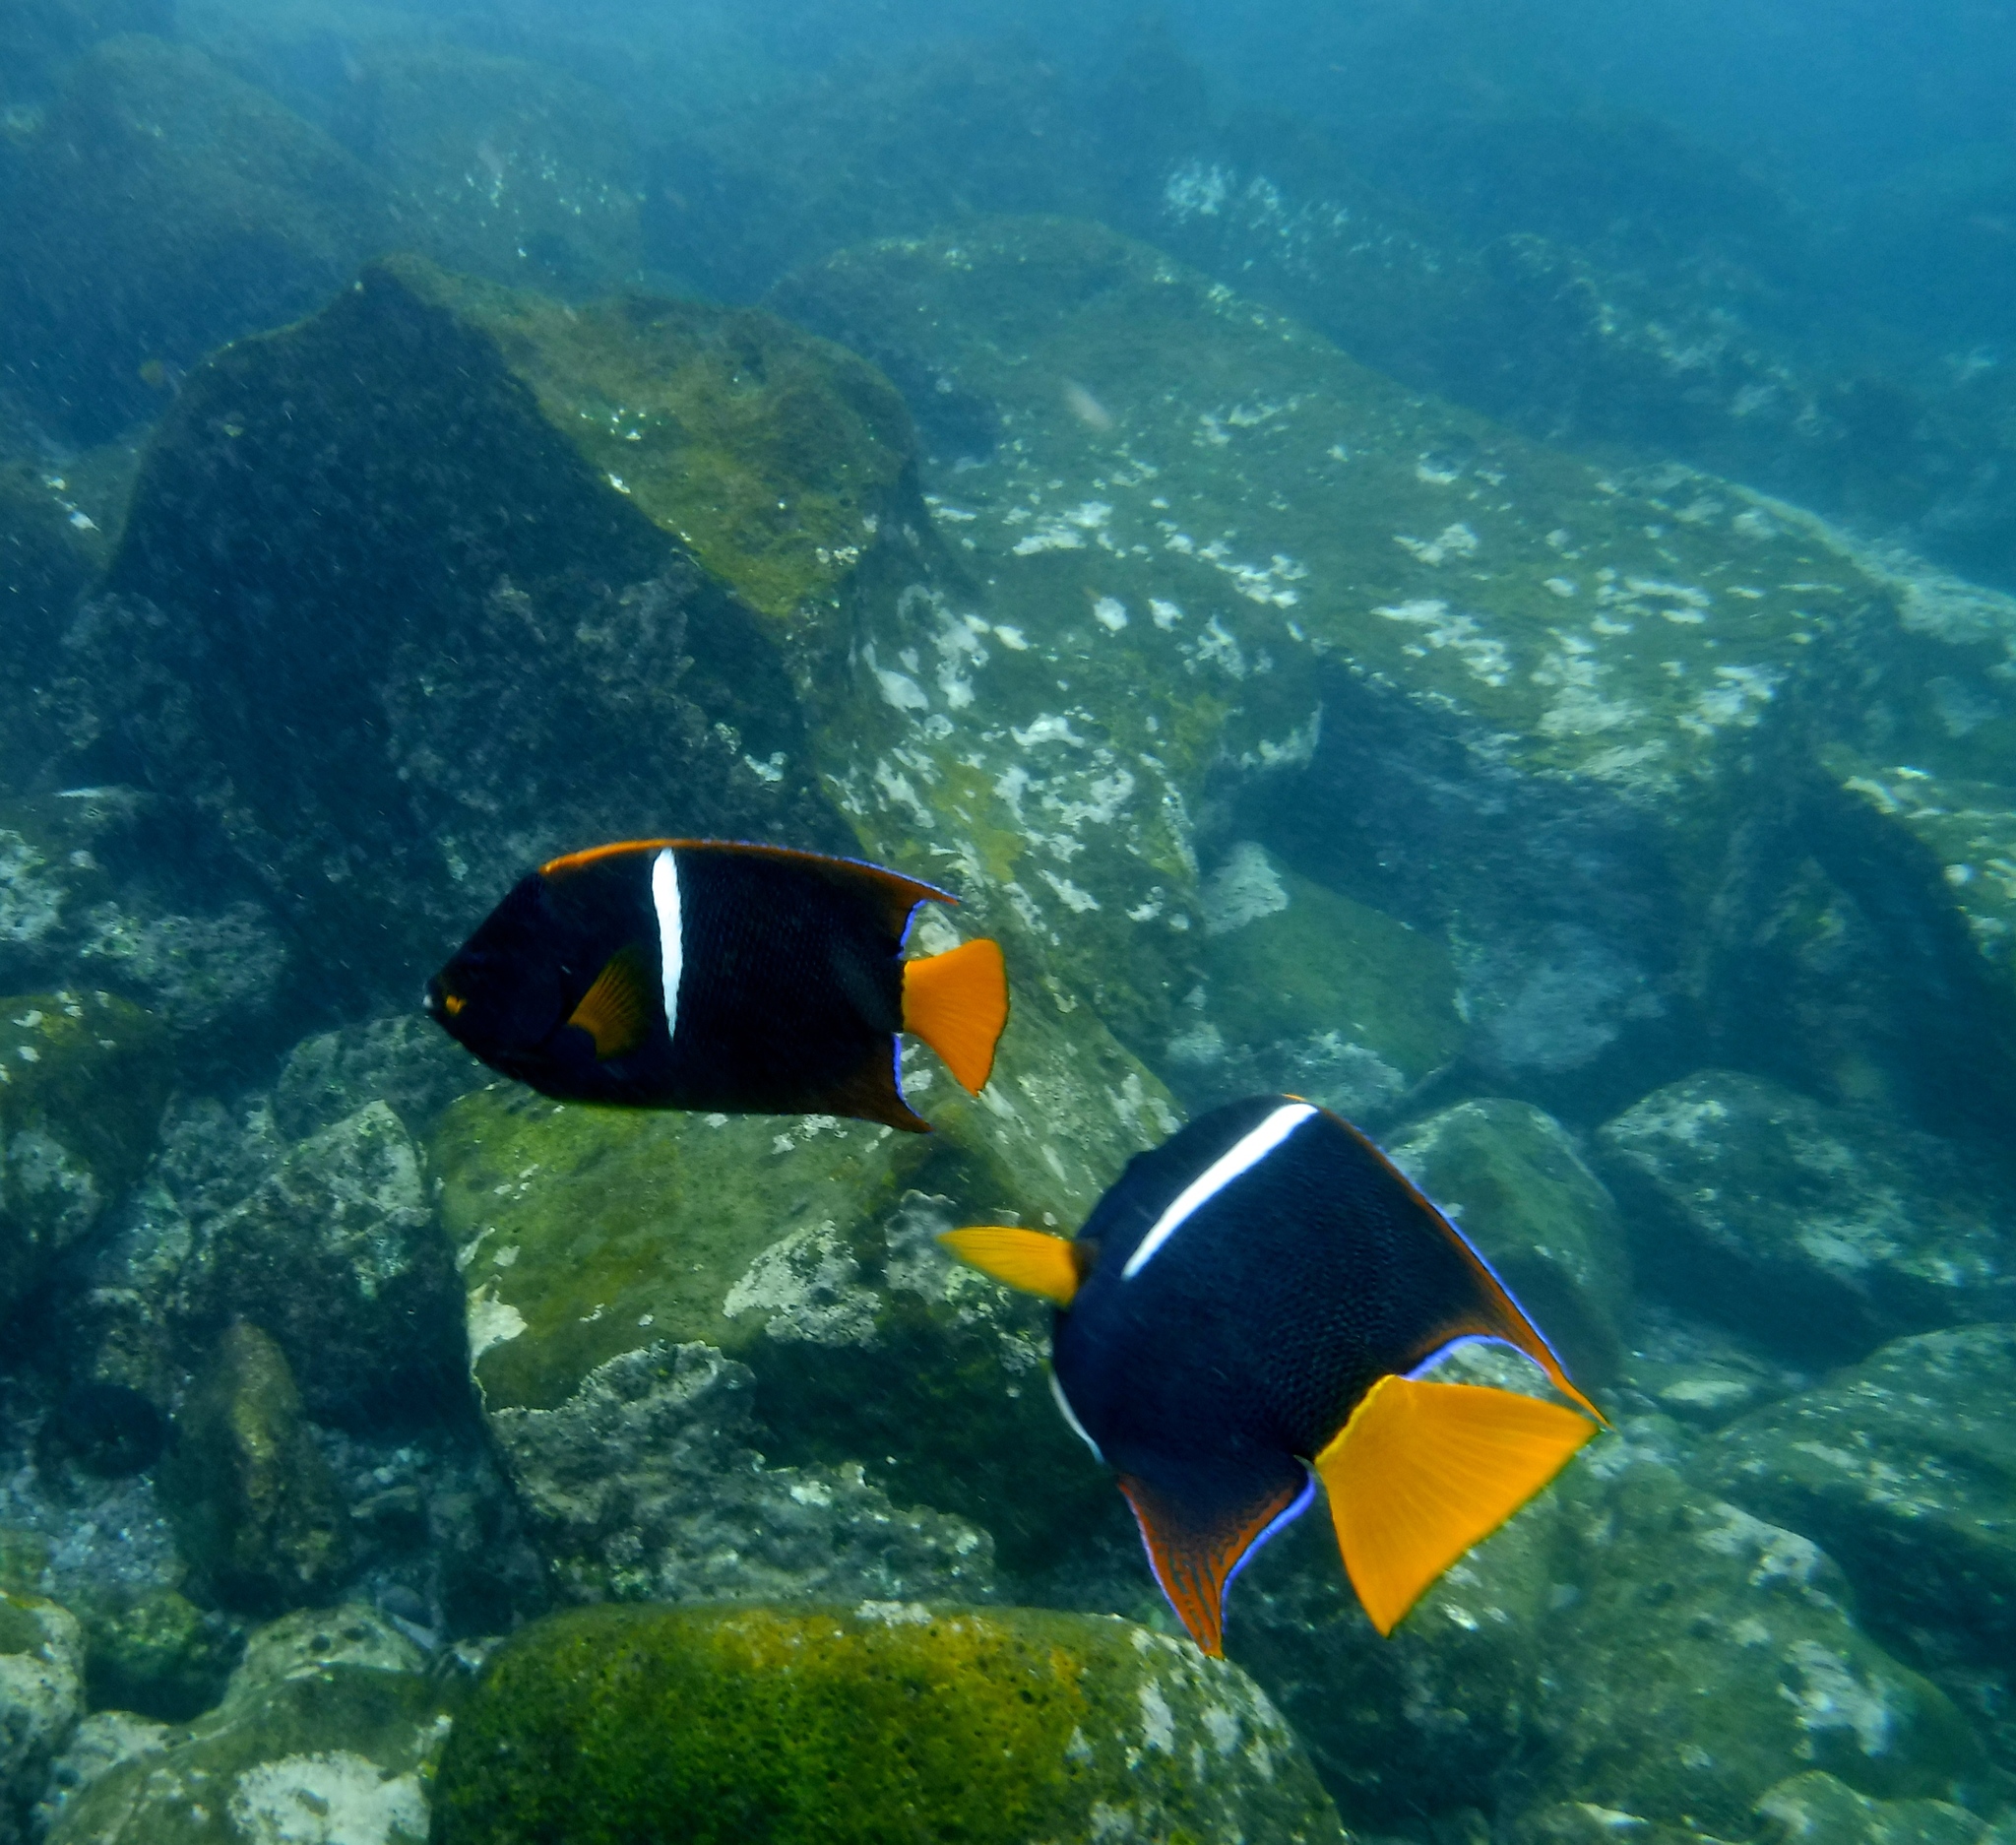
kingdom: Animalia
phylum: Chordata
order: Perciformes
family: Pomacanthidae
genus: Holacanthus
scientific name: Holacanthus passer
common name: King angelfish
